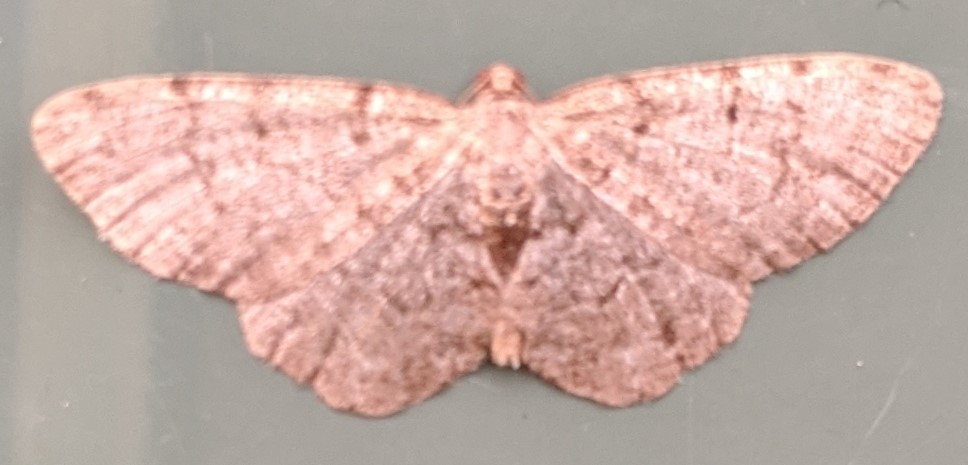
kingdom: Animalia
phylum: Arthropoda
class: Insecta
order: Lepidoptera
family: Geometridae
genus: Aethalura
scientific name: Aethalura intertexta
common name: Four-barred gray
